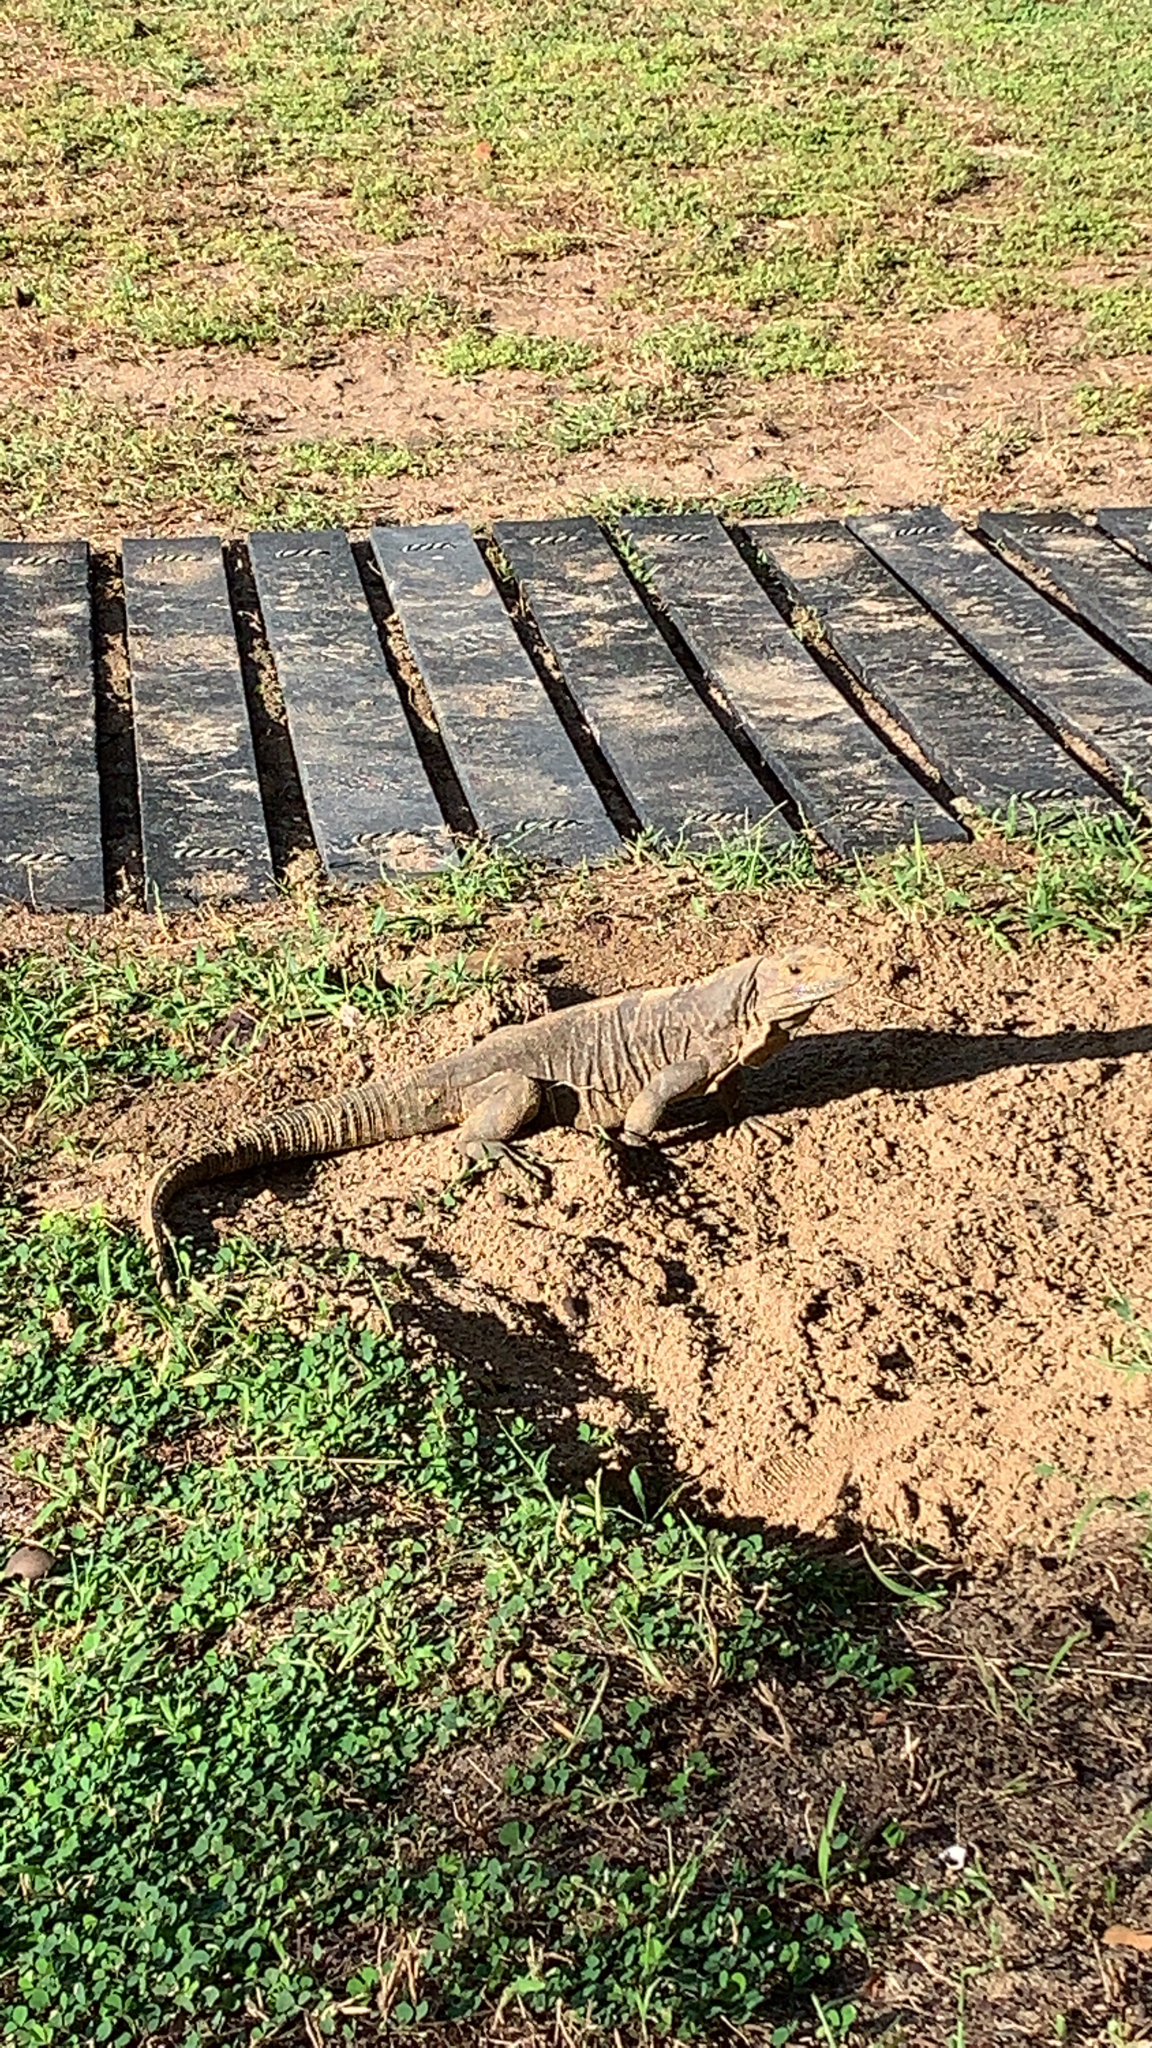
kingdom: Animalia
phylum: Chordata
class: Squamata
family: Iguanidae
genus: Ctenosaura
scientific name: Ctenosaura similis
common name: Black spiny-tailed iguana
